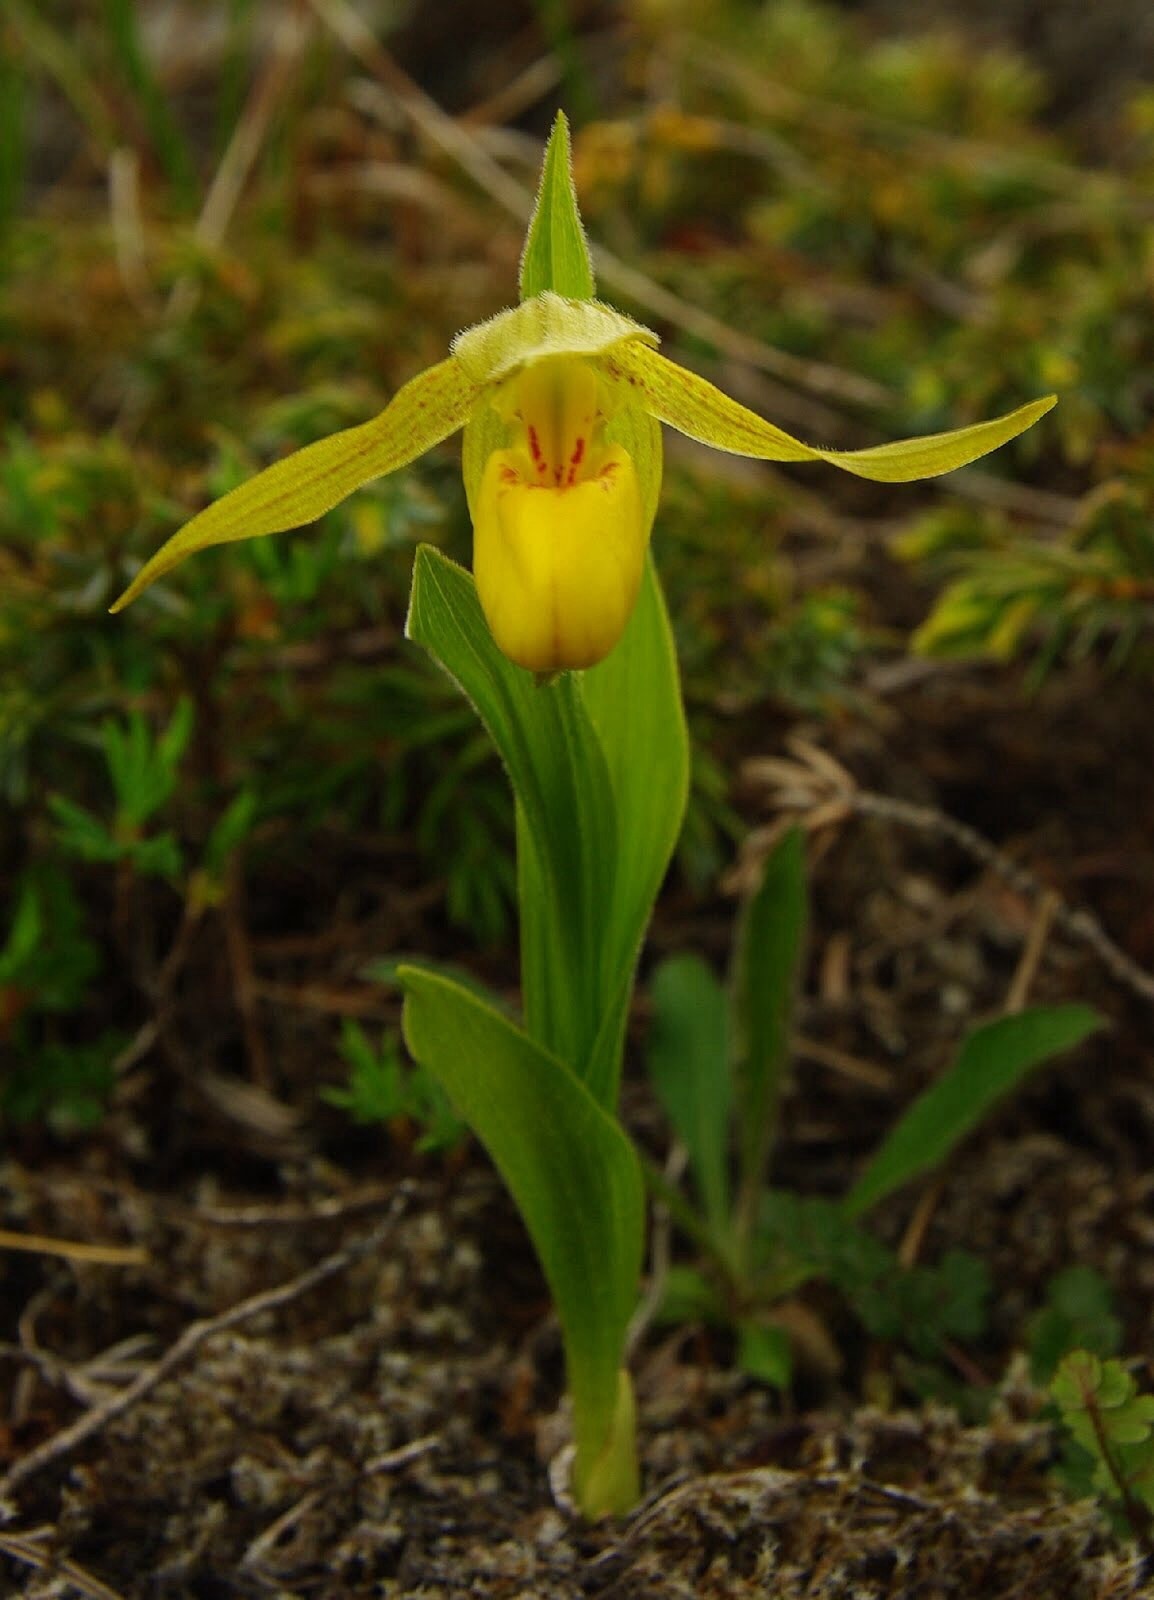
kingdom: Plantae
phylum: Tracheophyta
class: Liliopsida
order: Asparagales
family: Orchidaceae
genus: Cypripedium
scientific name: Cypripedium parviflorum
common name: American yellow lady's-slipper
